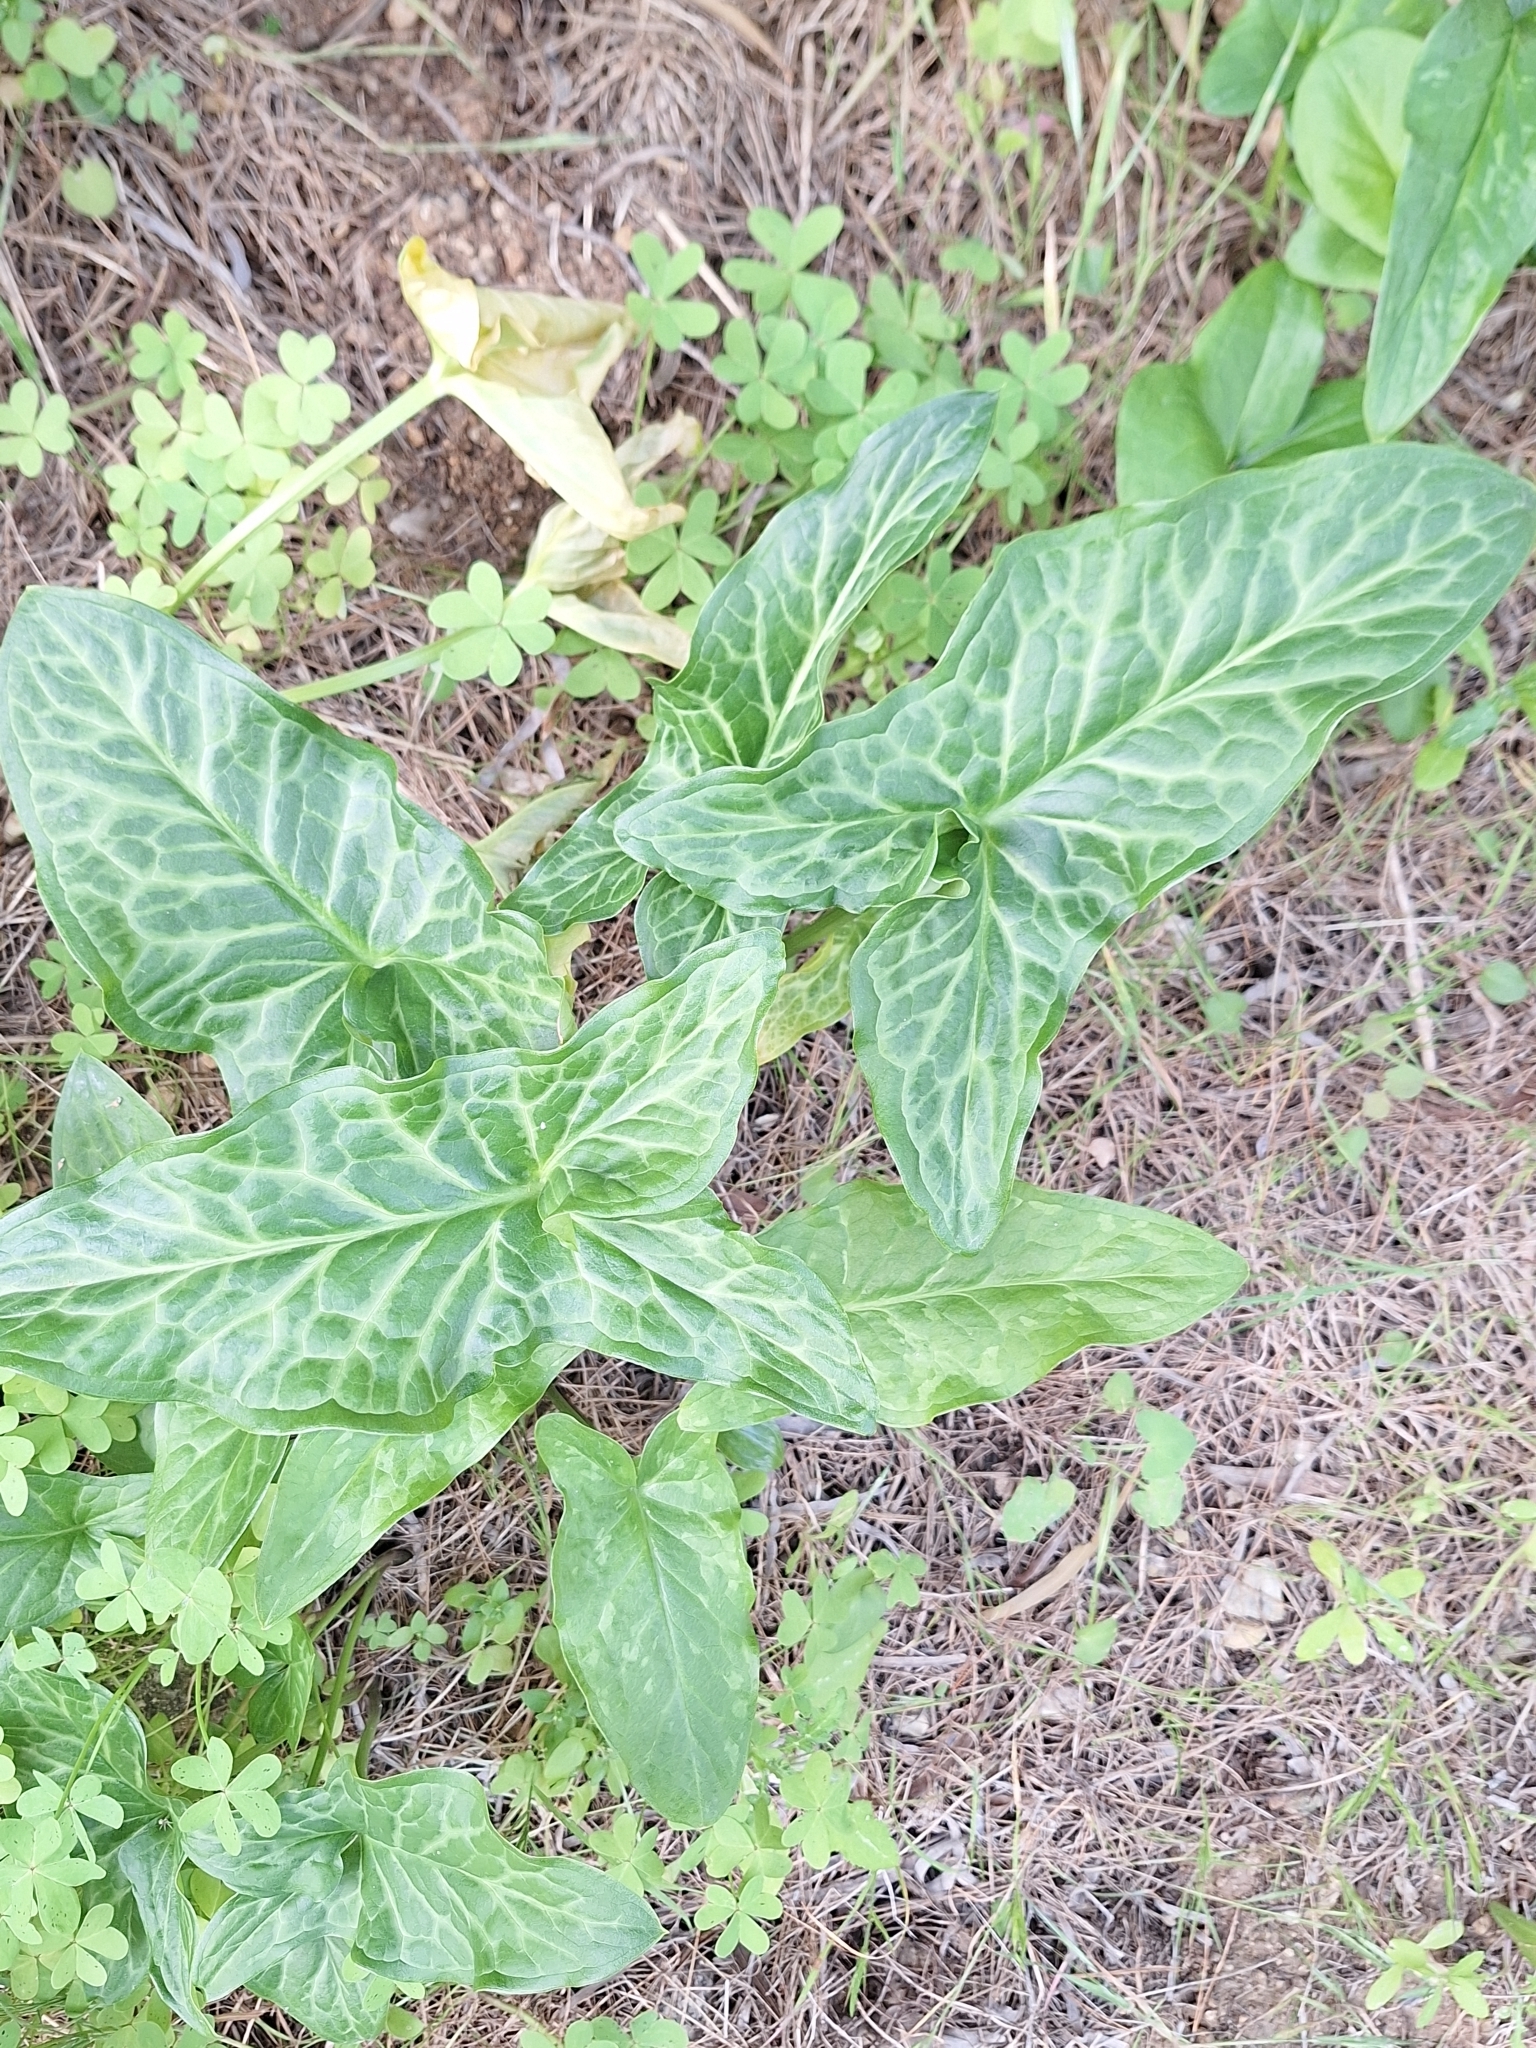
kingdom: Plantae
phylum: Tracheophyta
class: Liliopsida
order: Alismatales
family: Araceae
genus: Arum
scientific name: Arum italicum
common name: Italian lords-and-ladies
